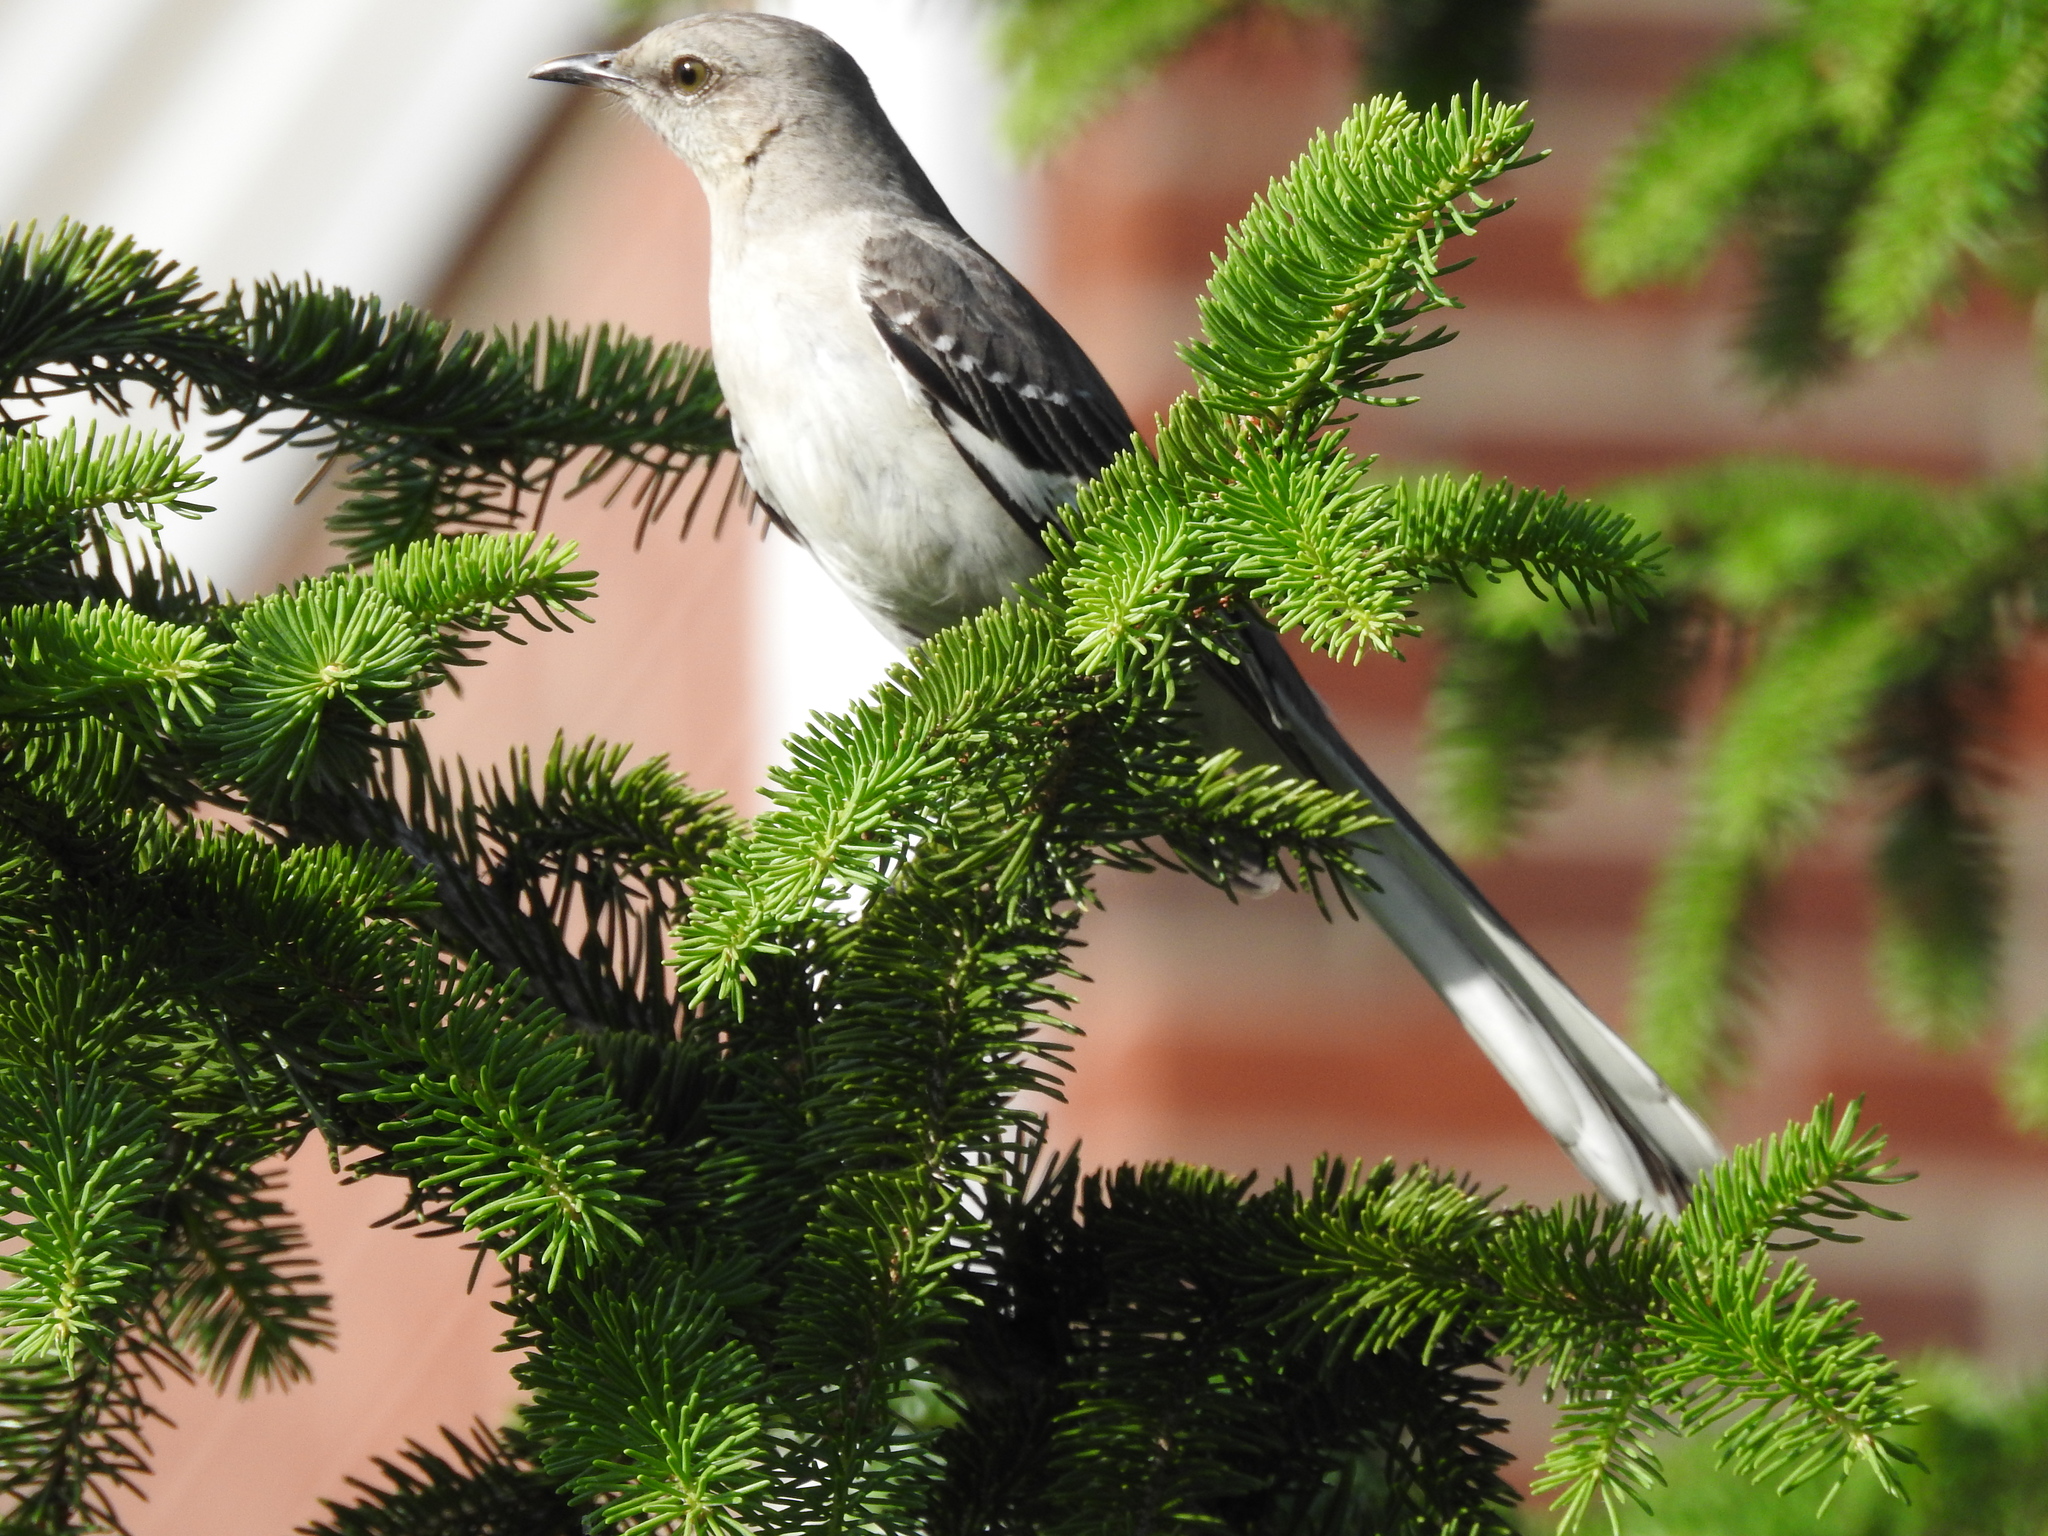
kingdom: Animalia
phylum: Chordata
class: Aves
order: Passeriformes
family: Mimidae
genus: Mimus
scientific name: Mimus polyglottos
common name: Northern mockingbird
